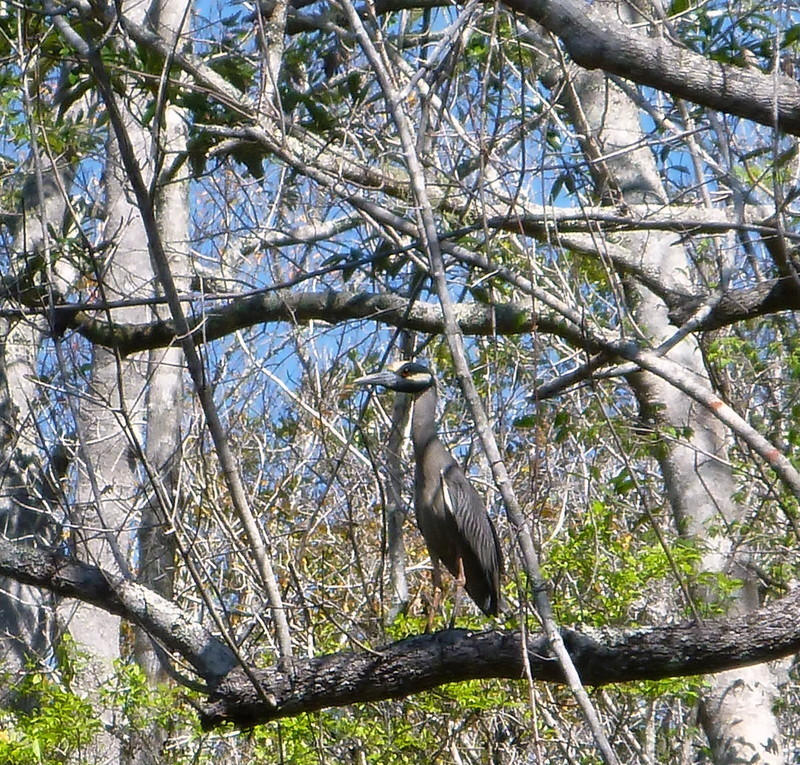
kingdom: Animalia
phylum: Chordata
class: Aves
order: Pelecaniformes
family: Ardeidae
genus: Nyctanassa
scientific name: Nyctanassa violacea
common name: Yellow-crowned night heron
